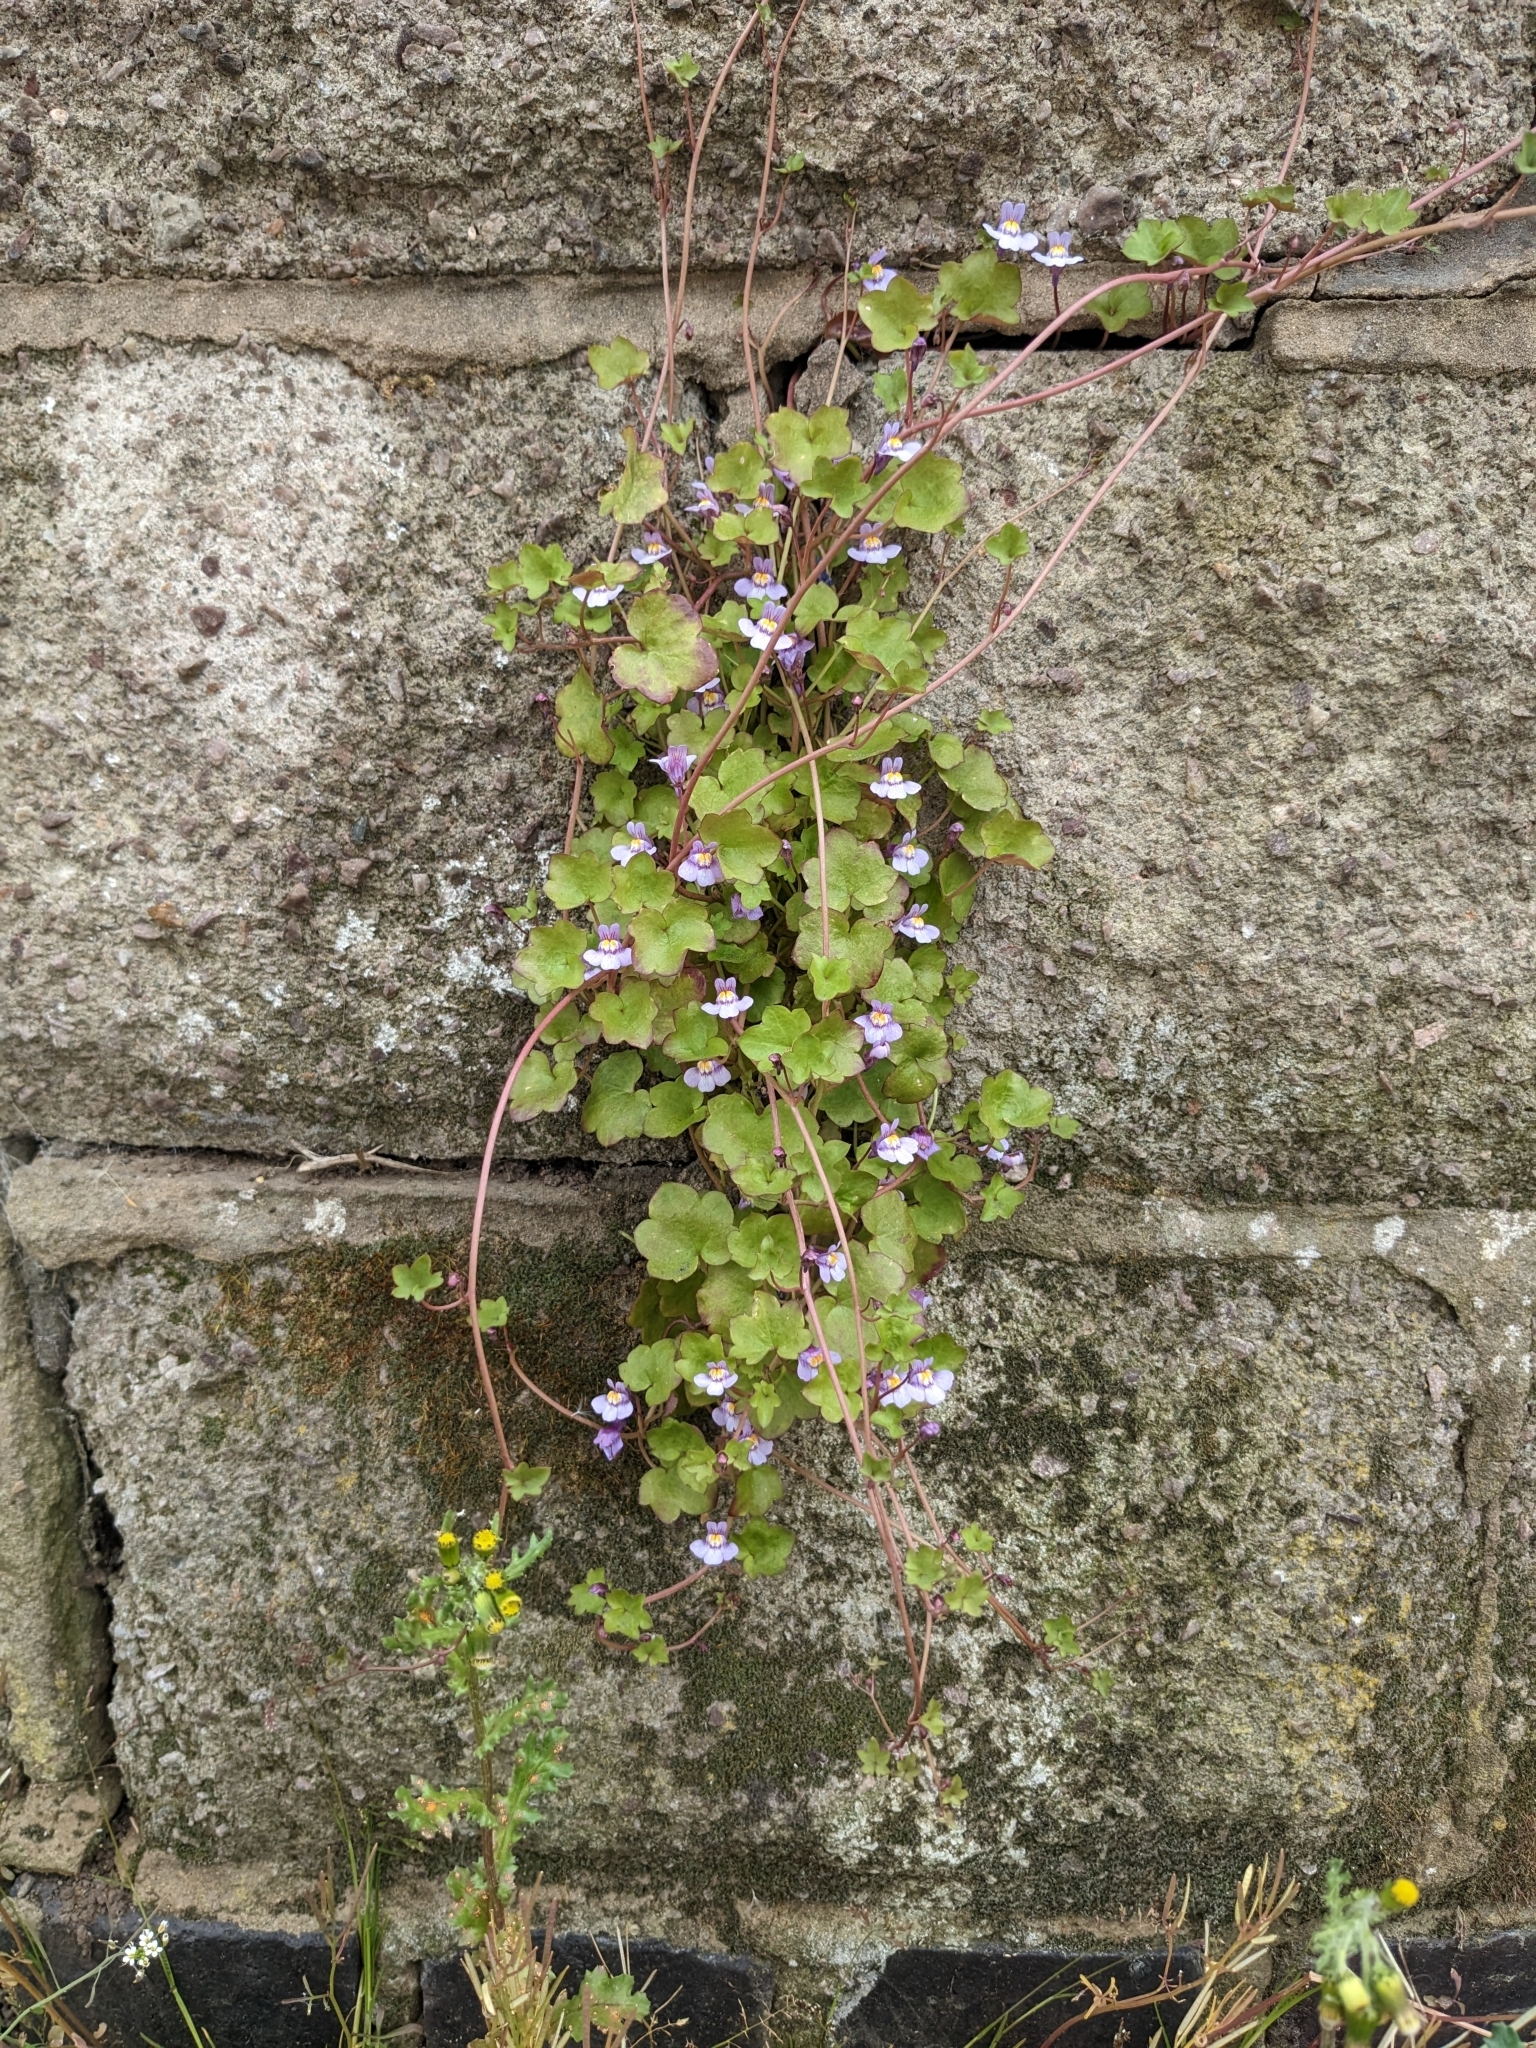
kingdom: Plantae
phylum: Tracheophyta
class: Magnoliopsida
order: Lamiales
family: Plantaginaceae
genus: Cymbalaria
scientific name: Cymbalaria muralis
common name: Ivy-leaved toadflax
